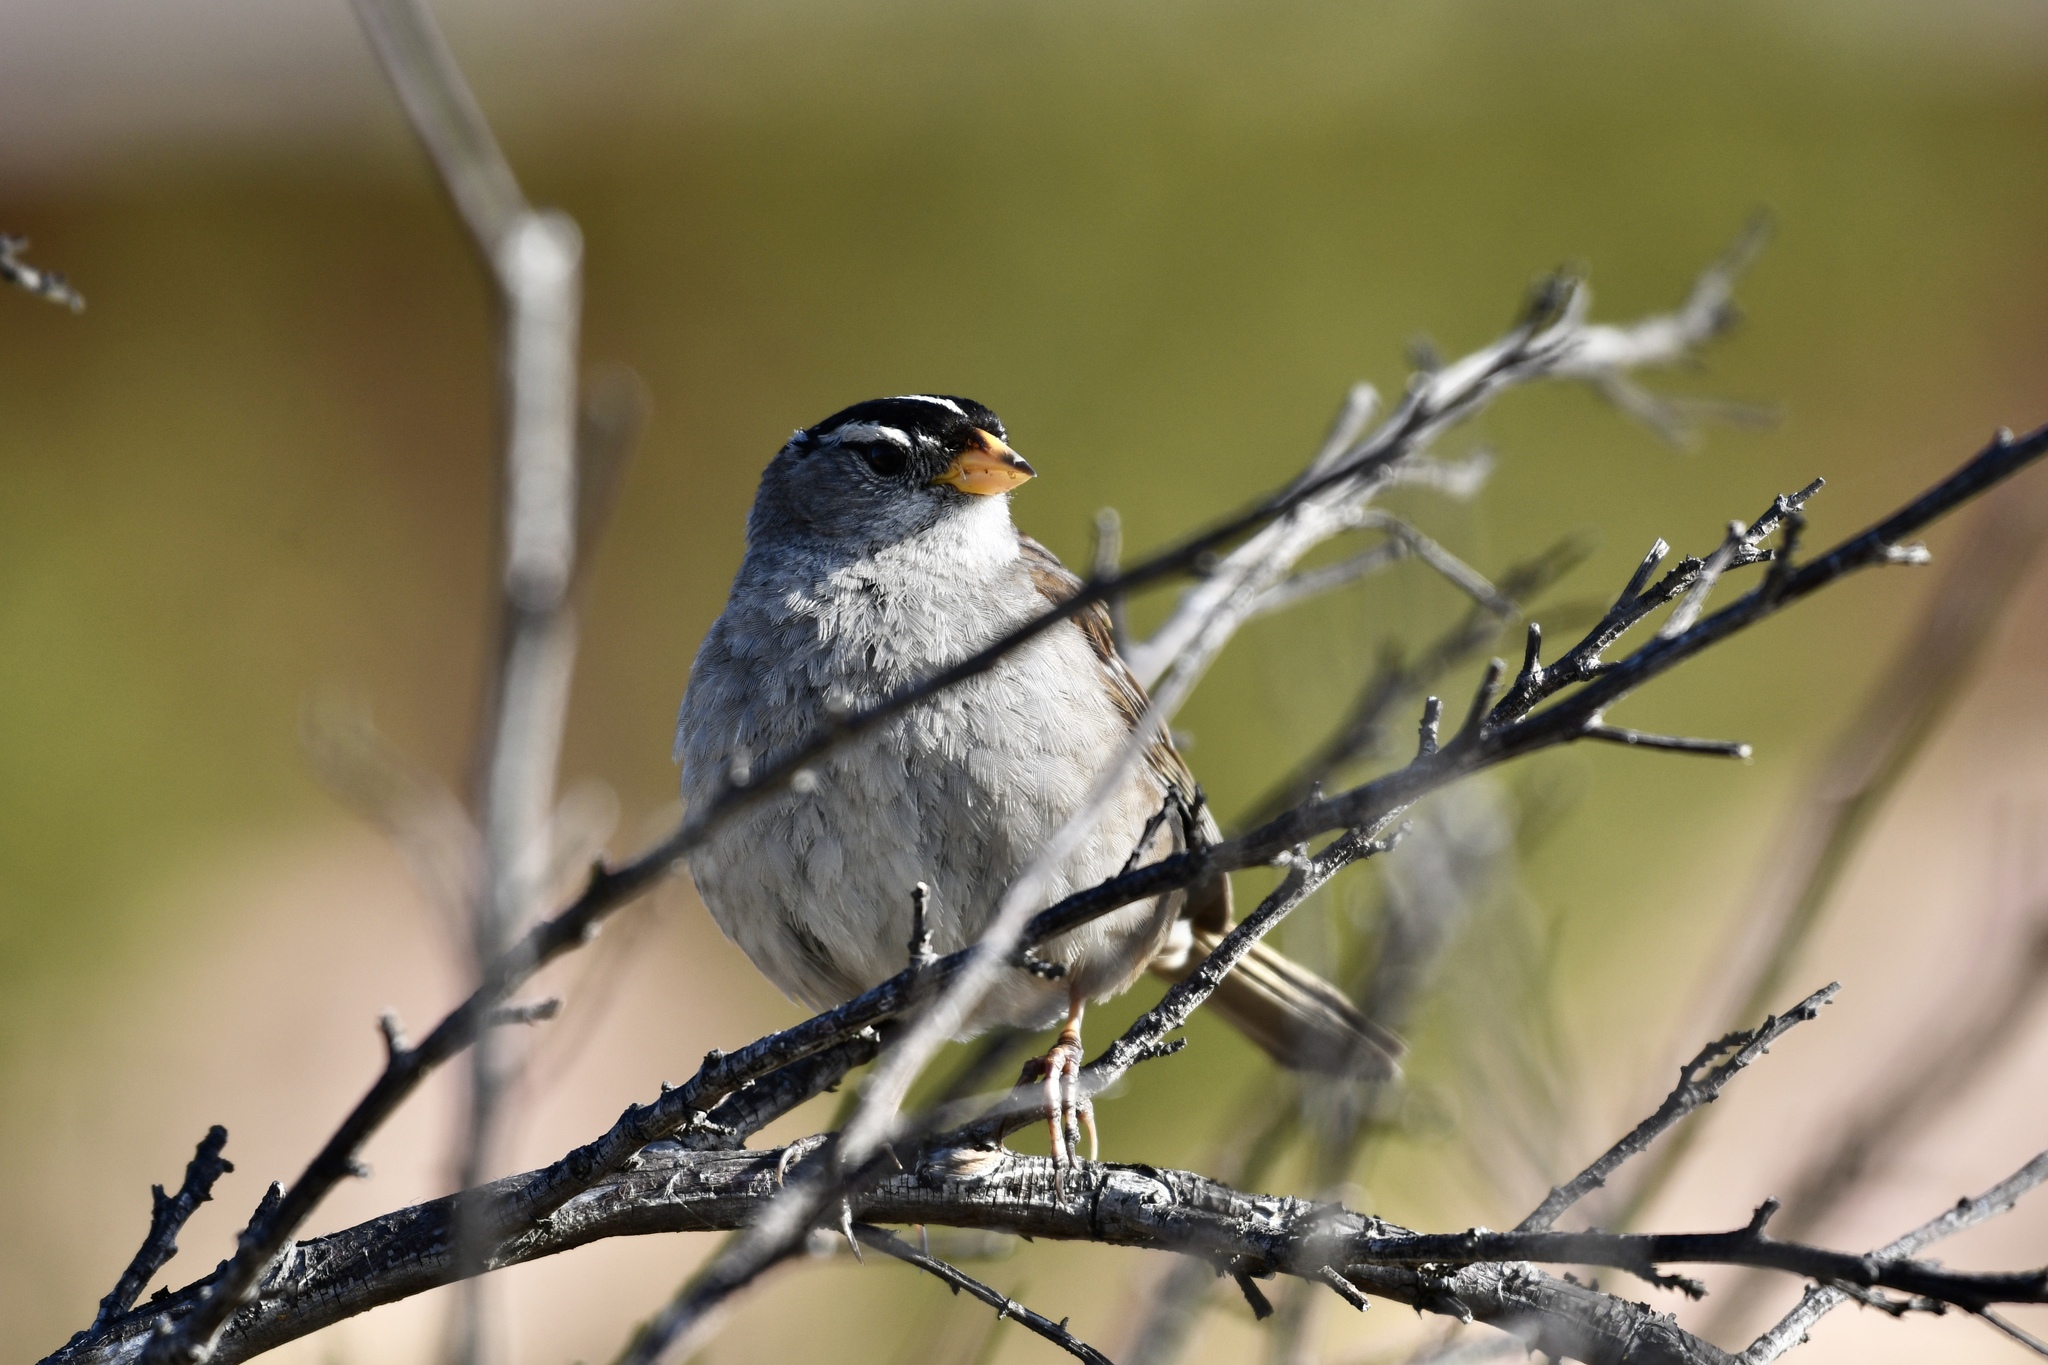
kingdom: Animalia
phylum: Chordata
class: Aves
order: Passeriformes
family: Passerellidae
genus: Zonotrichia
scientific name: Zonotrichia leucophrys
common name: White-crowned sparrow
